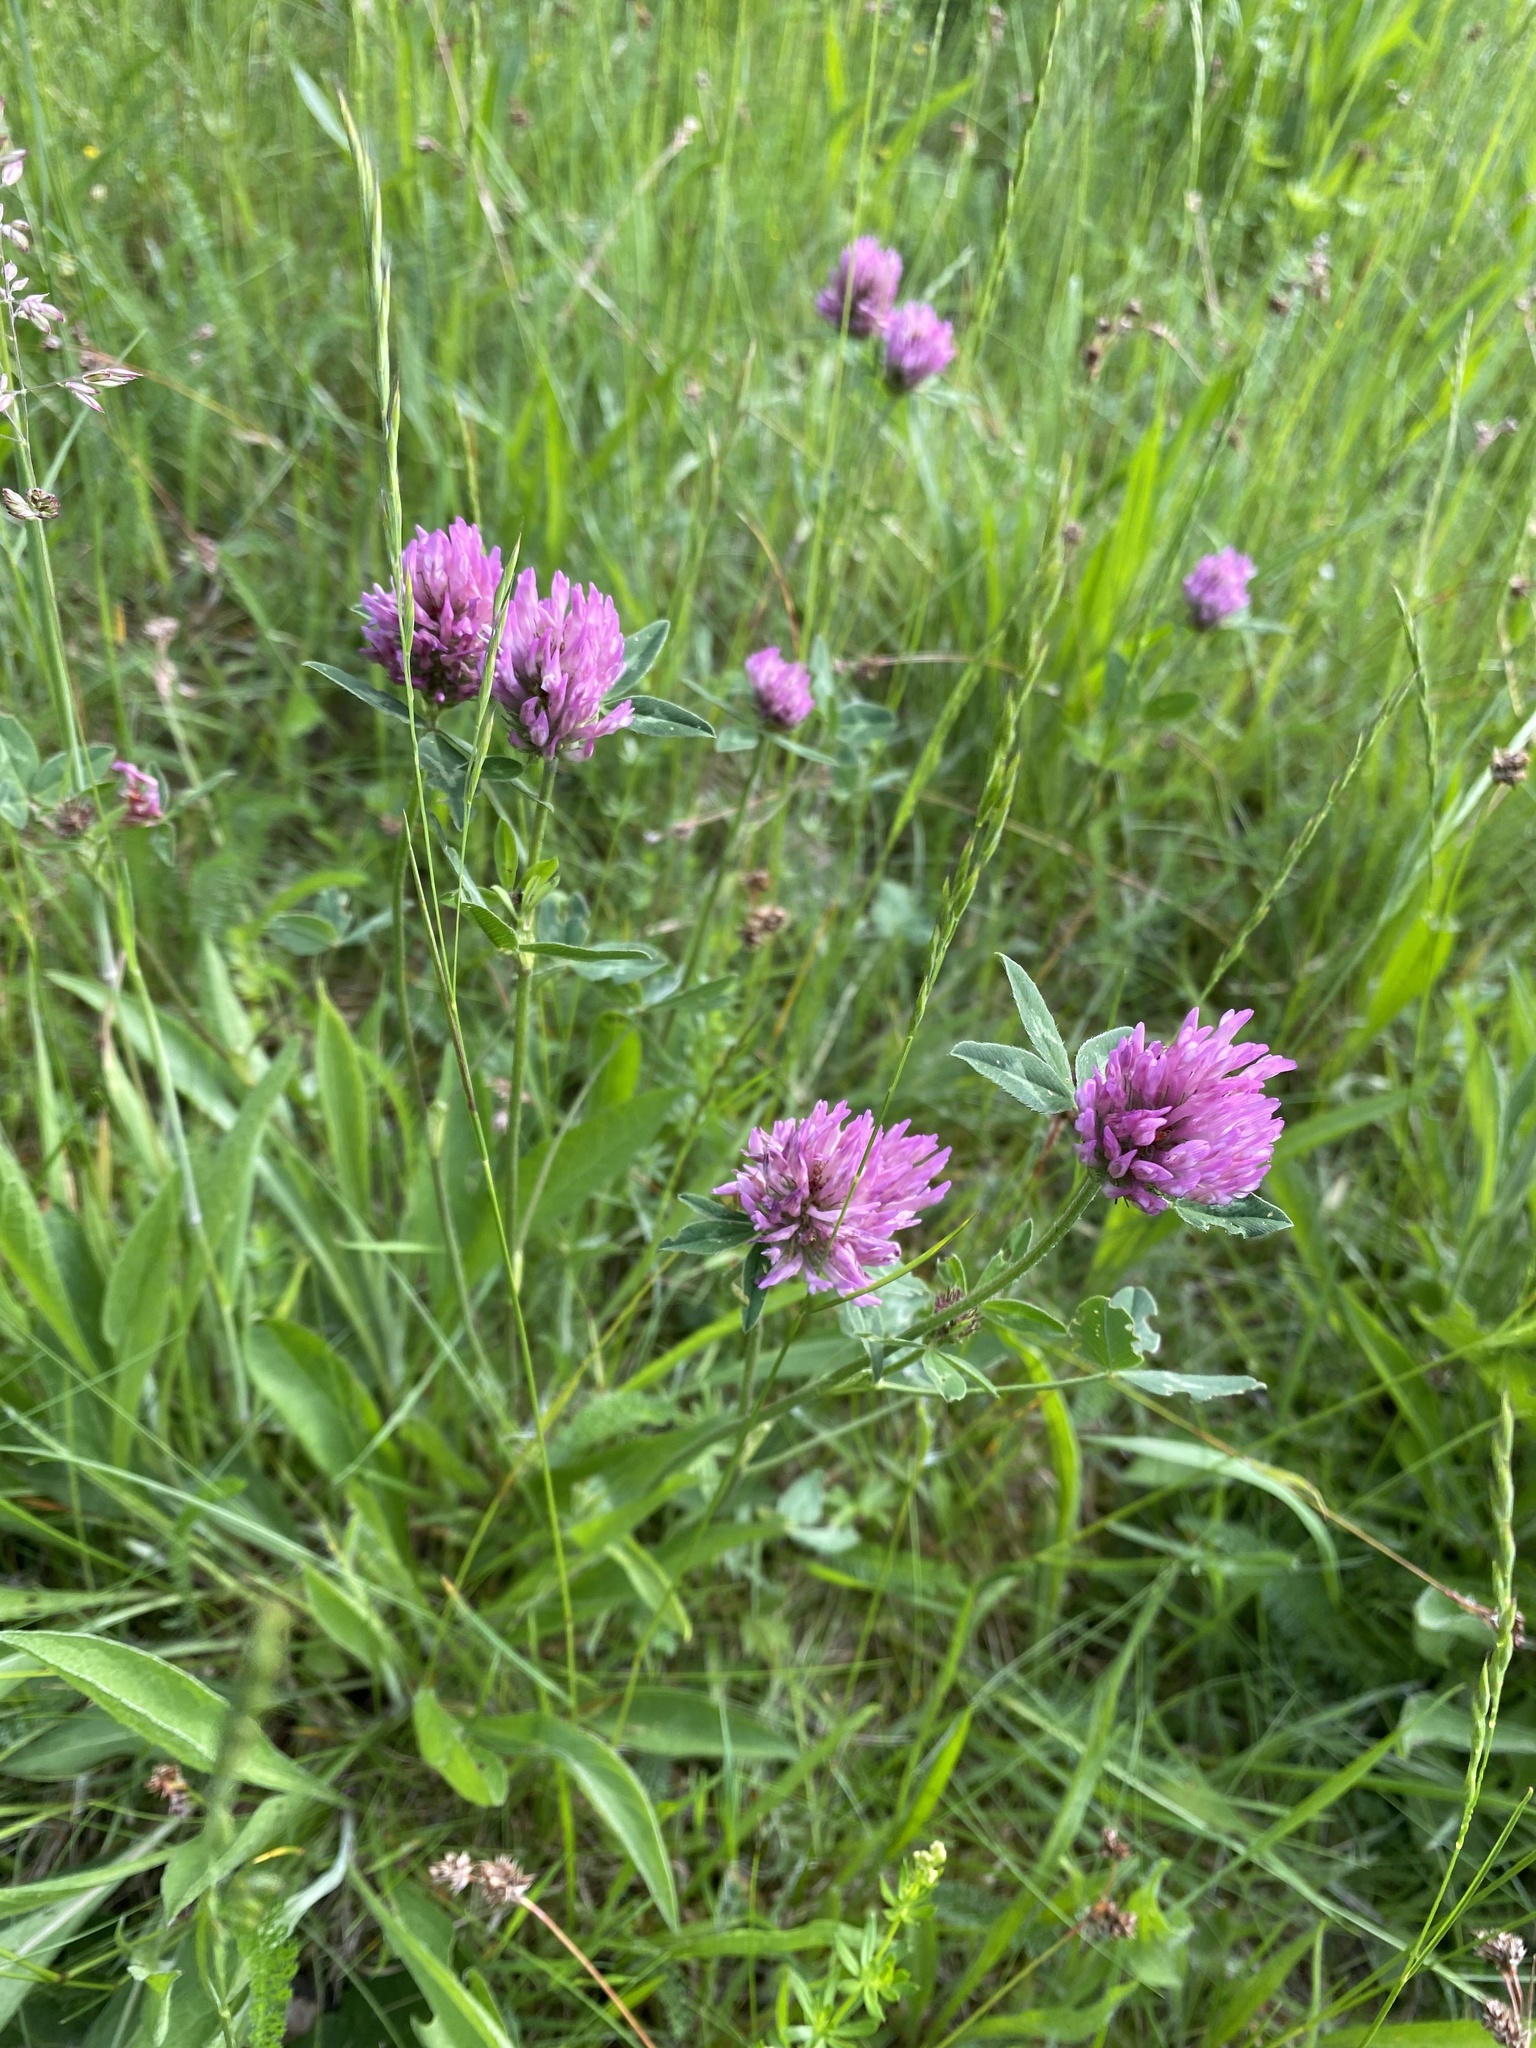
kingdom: Plantae
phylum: Tracheophyta
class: Magnoliopsida
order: Fabales
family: Fabaceae
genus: Trifolium
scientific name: Trifolium pratense
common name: Red clover
